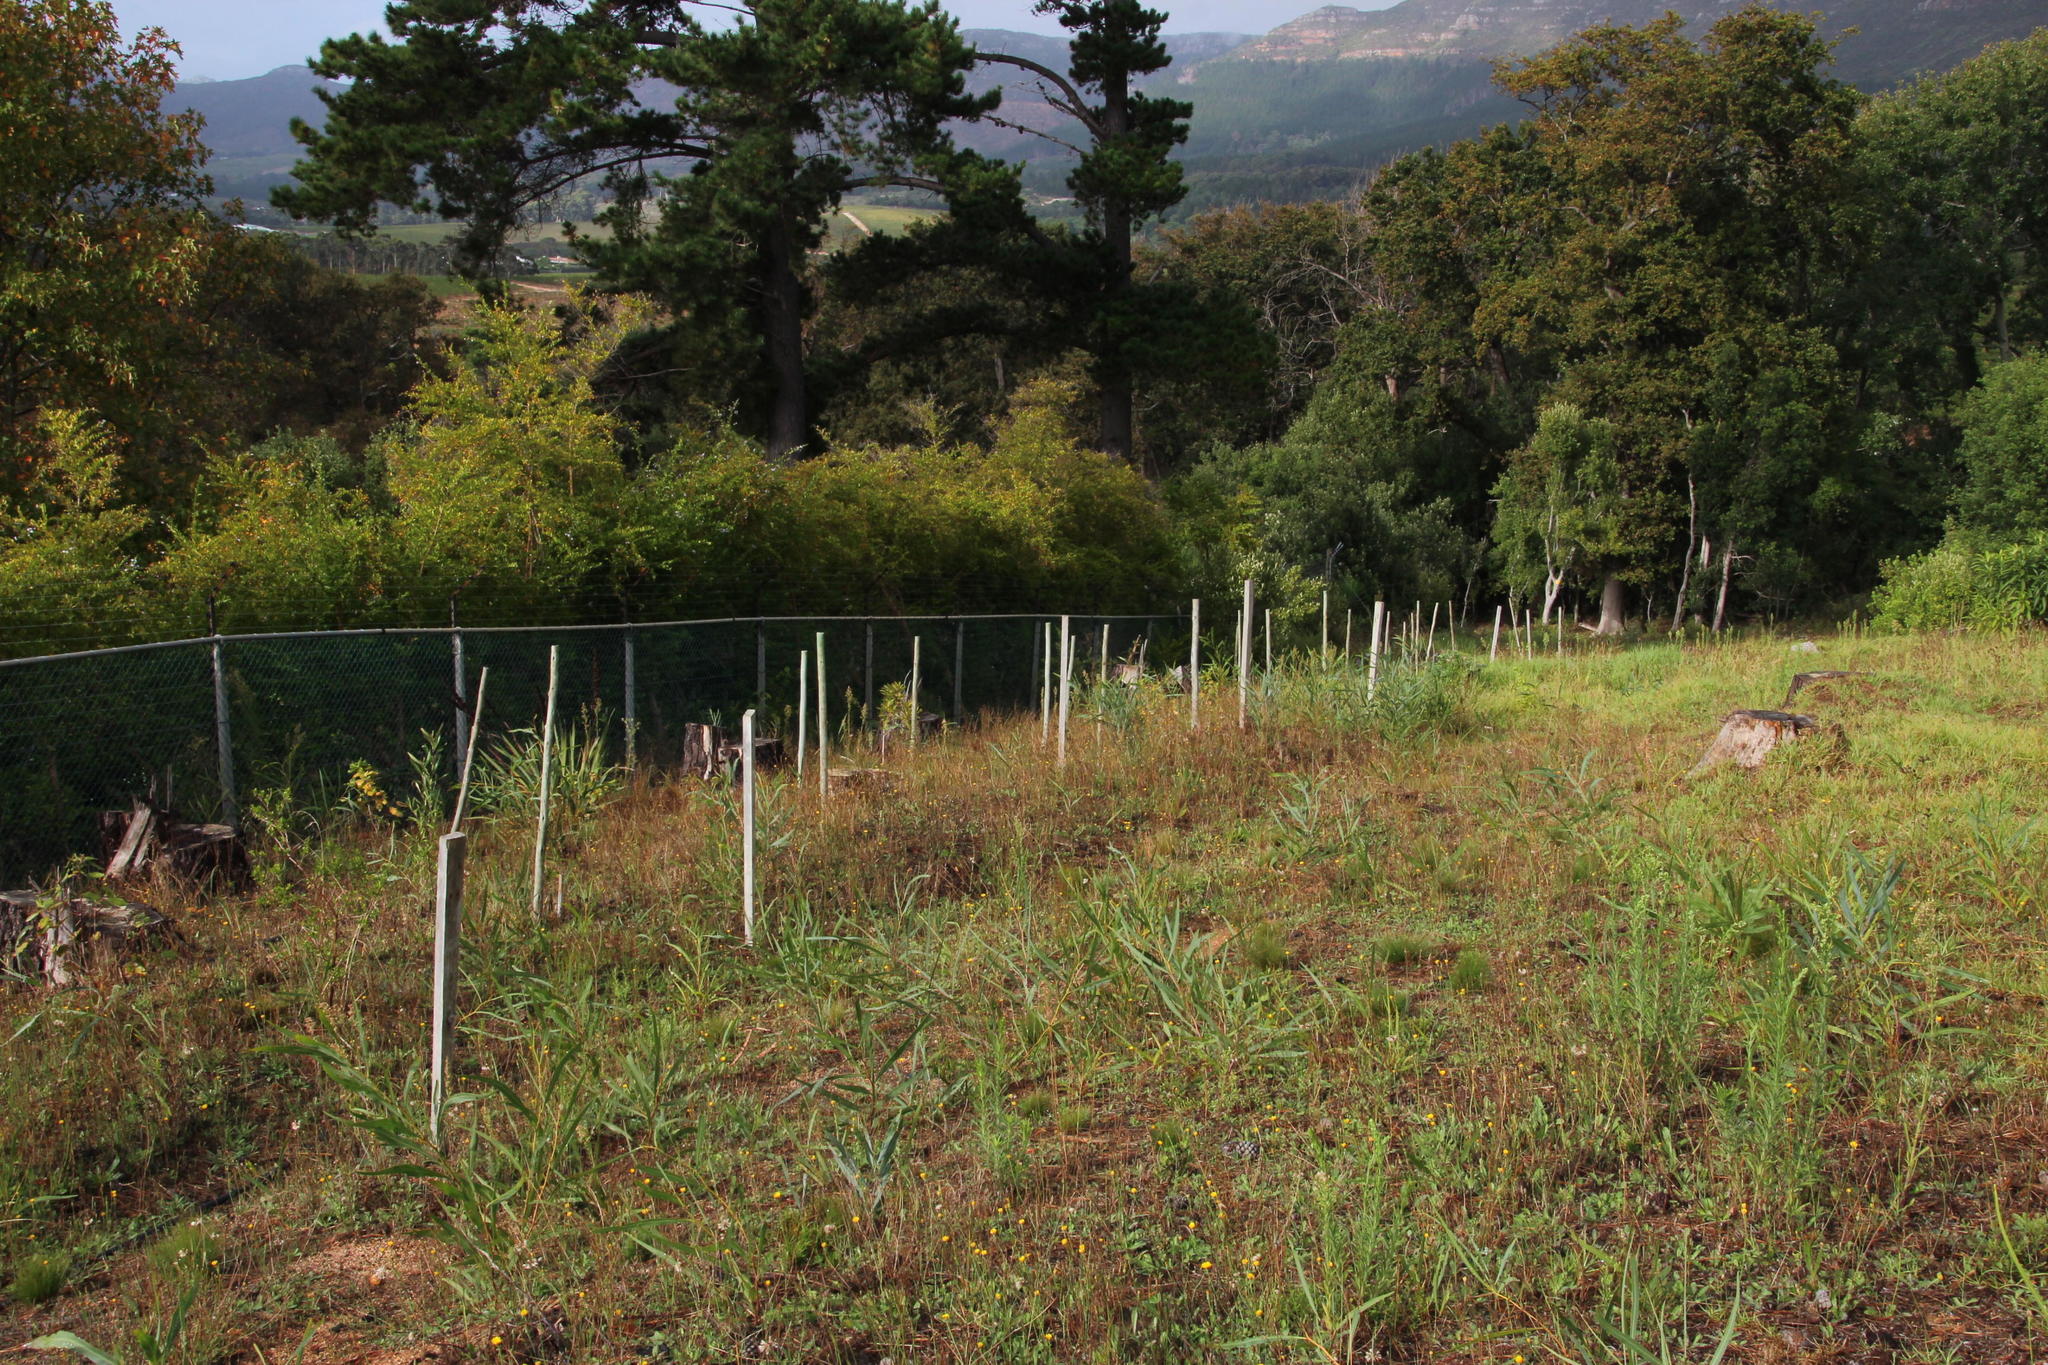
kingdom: Plantae
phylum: Tracheophyta
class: Magnoliopsida
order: Fabales
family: Fabaceae
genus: Acacia
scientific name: Acacia saligna
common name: Orange wattle
